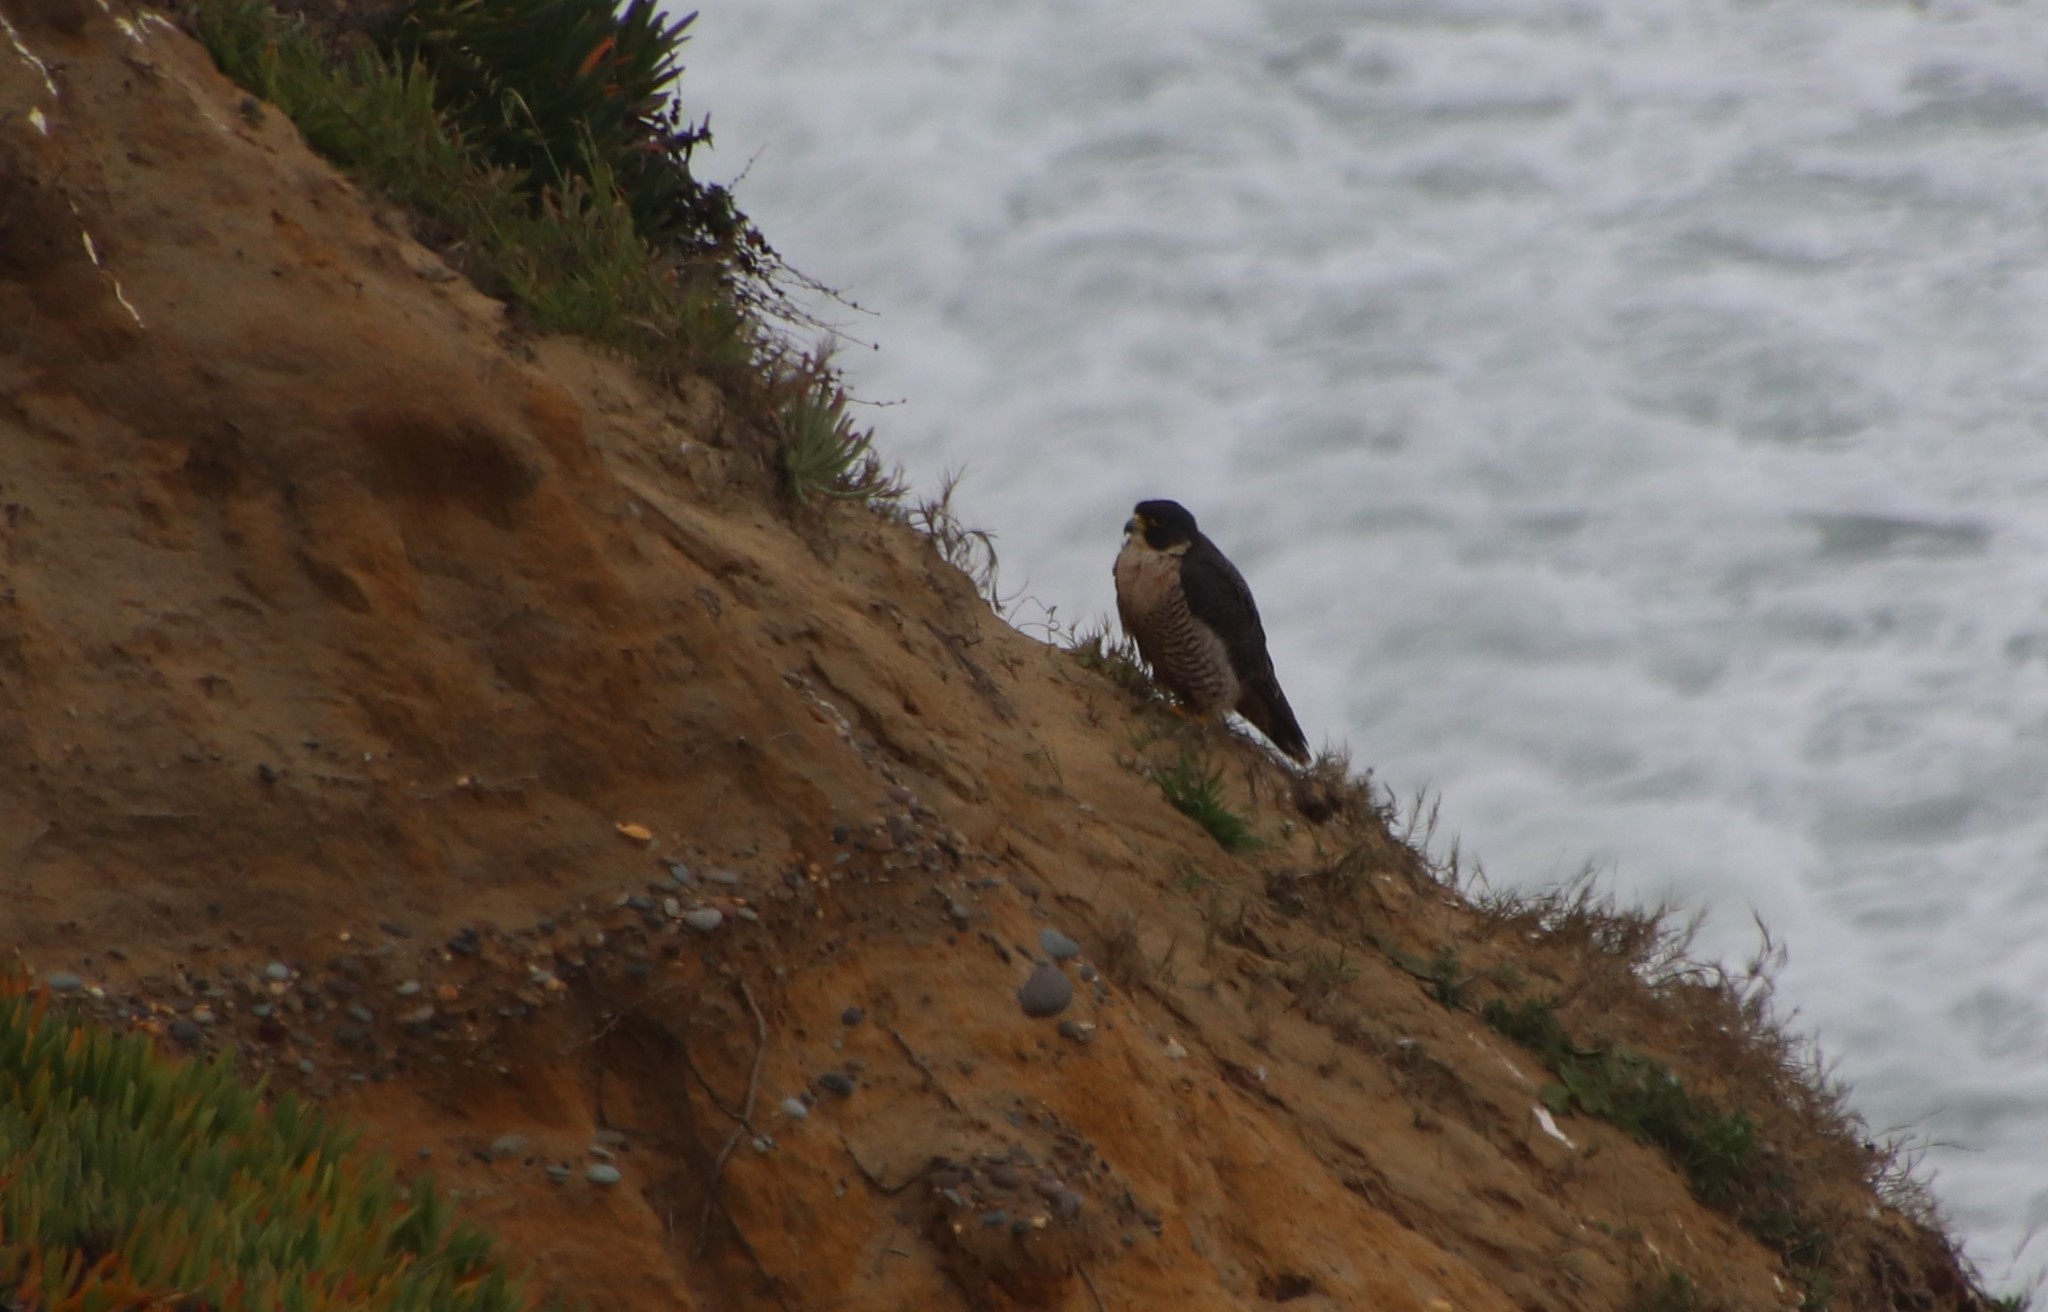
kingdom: Animalia
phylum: Chordata
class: Aves
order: Falconiformes
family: Falconidae
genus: Falco
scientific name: Falco peregrinus
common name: Peregrine falcon
